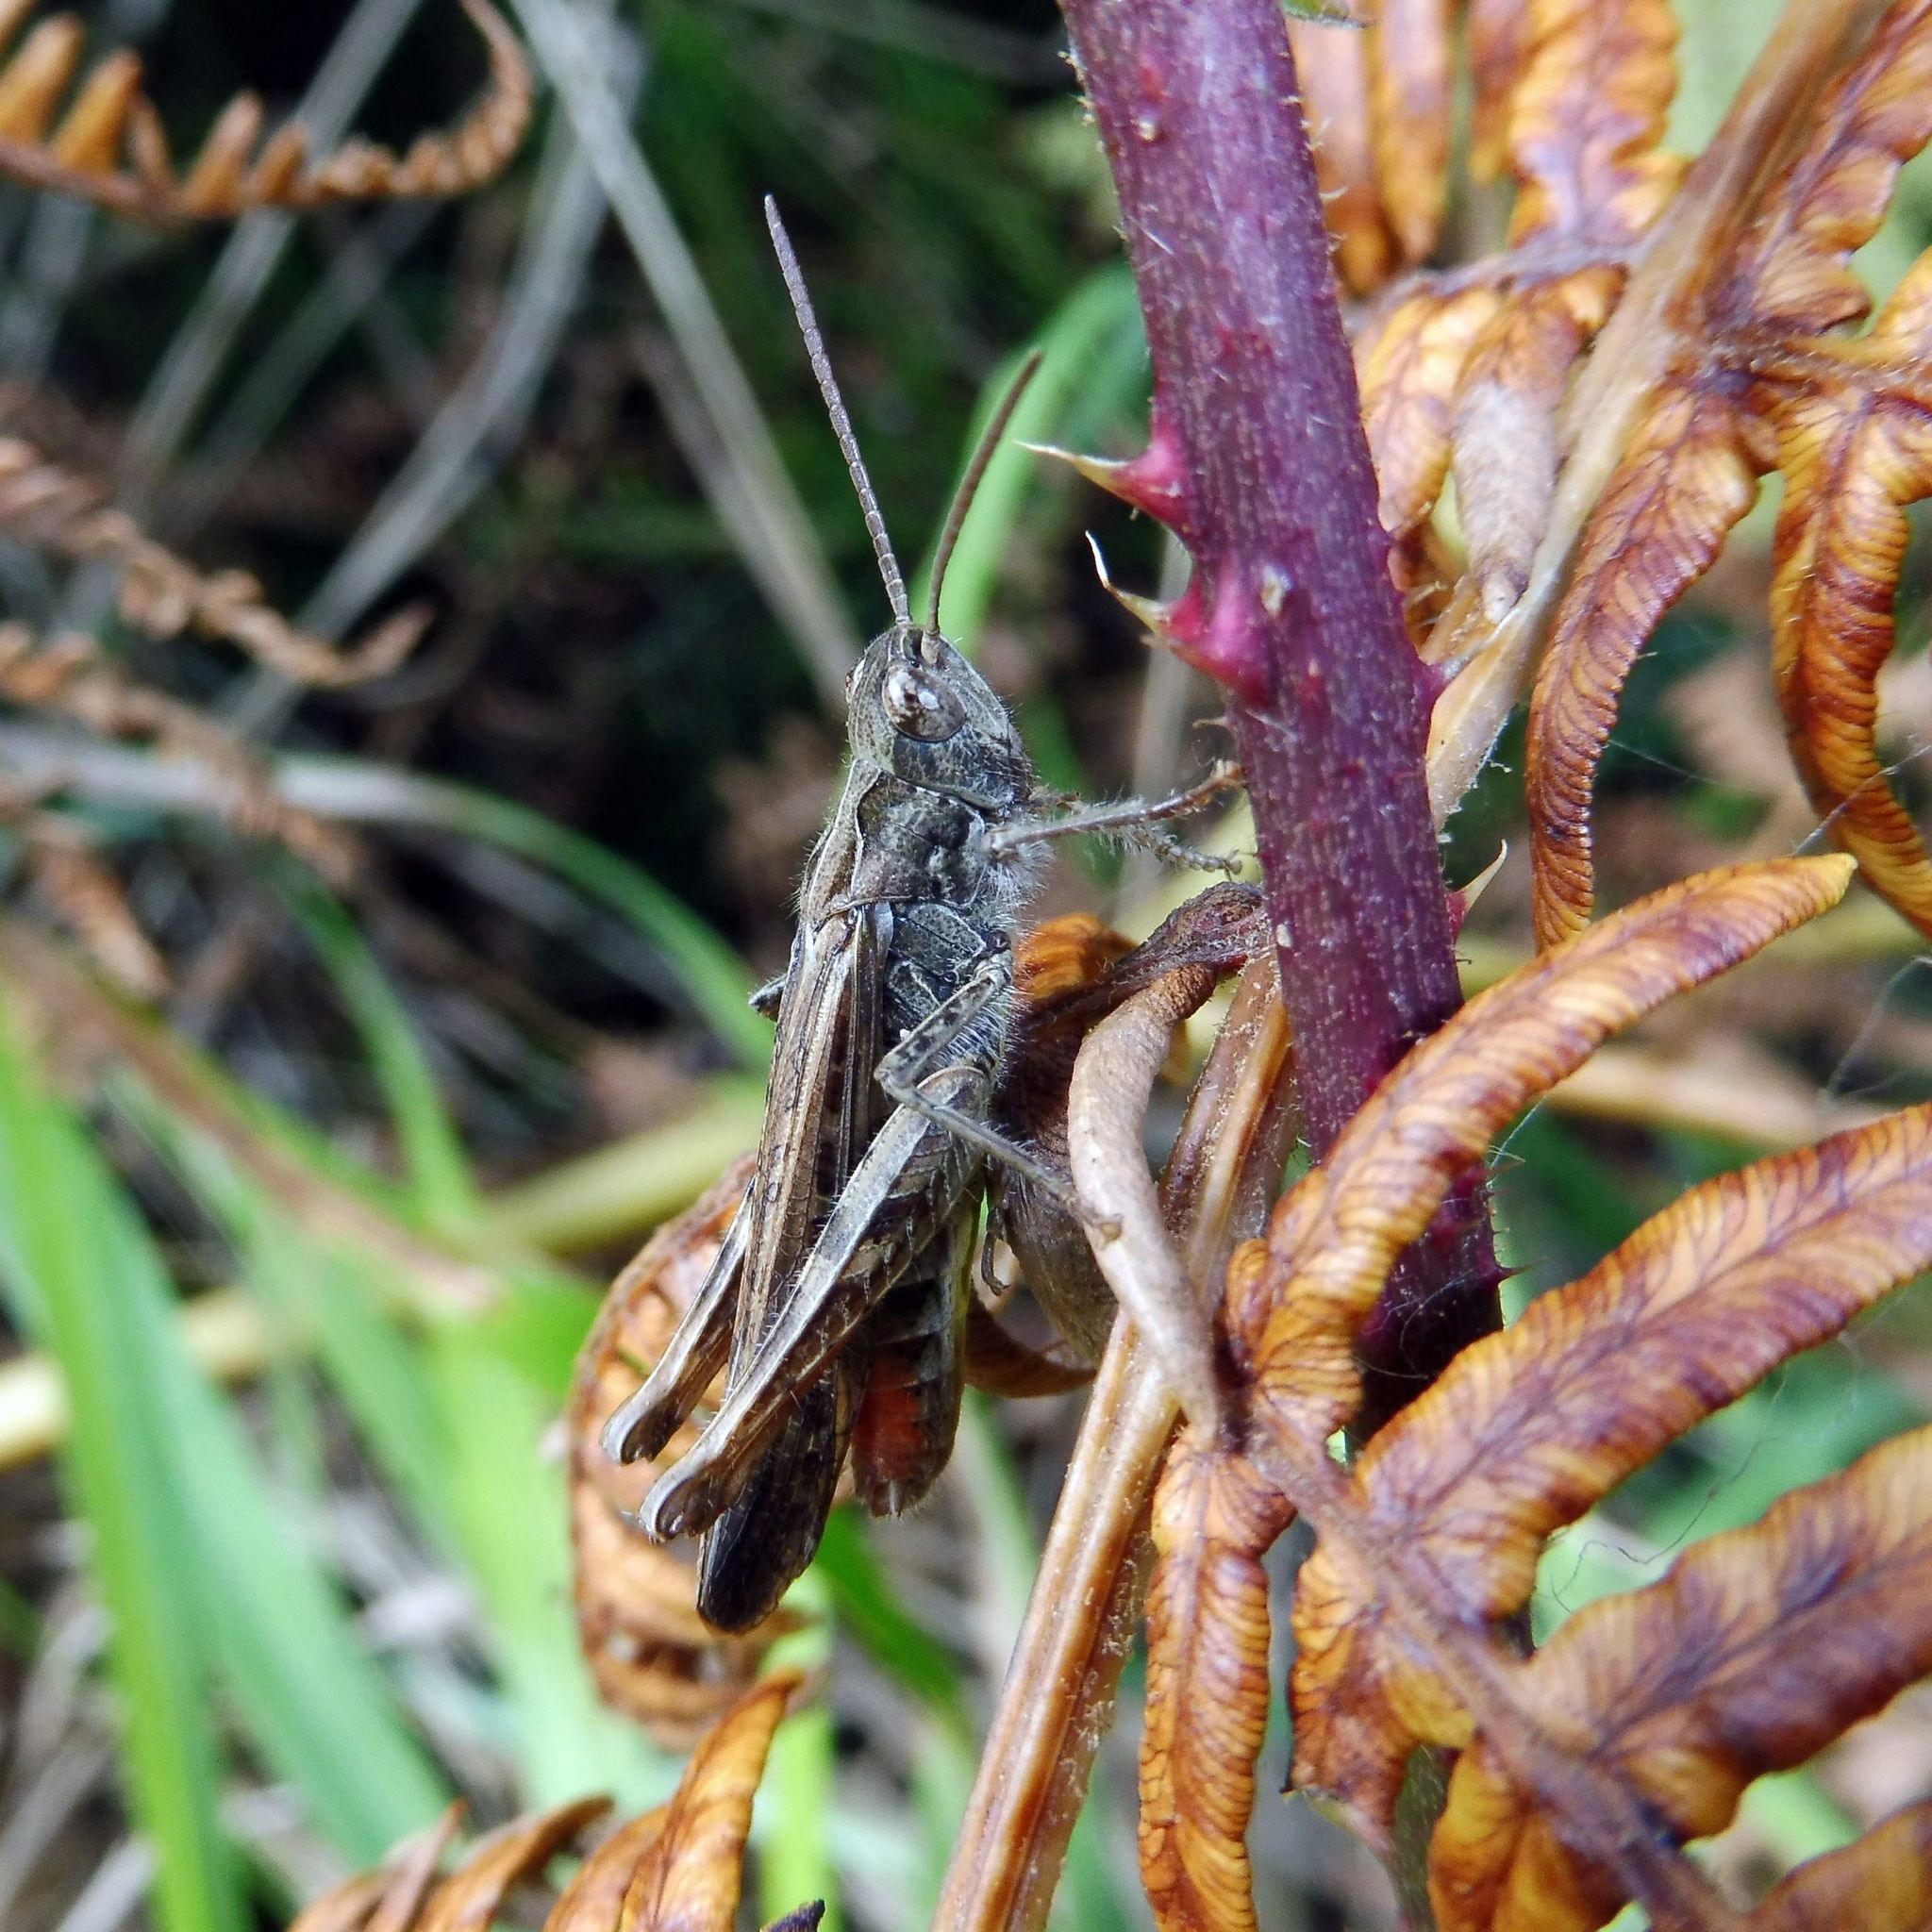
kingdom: Animalia
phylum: Arthropoda
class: Insecta
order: Orthoptera
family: Acrididae
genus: Chorthippus
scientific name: Chorthippus brunneus
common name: Field grasshopper
